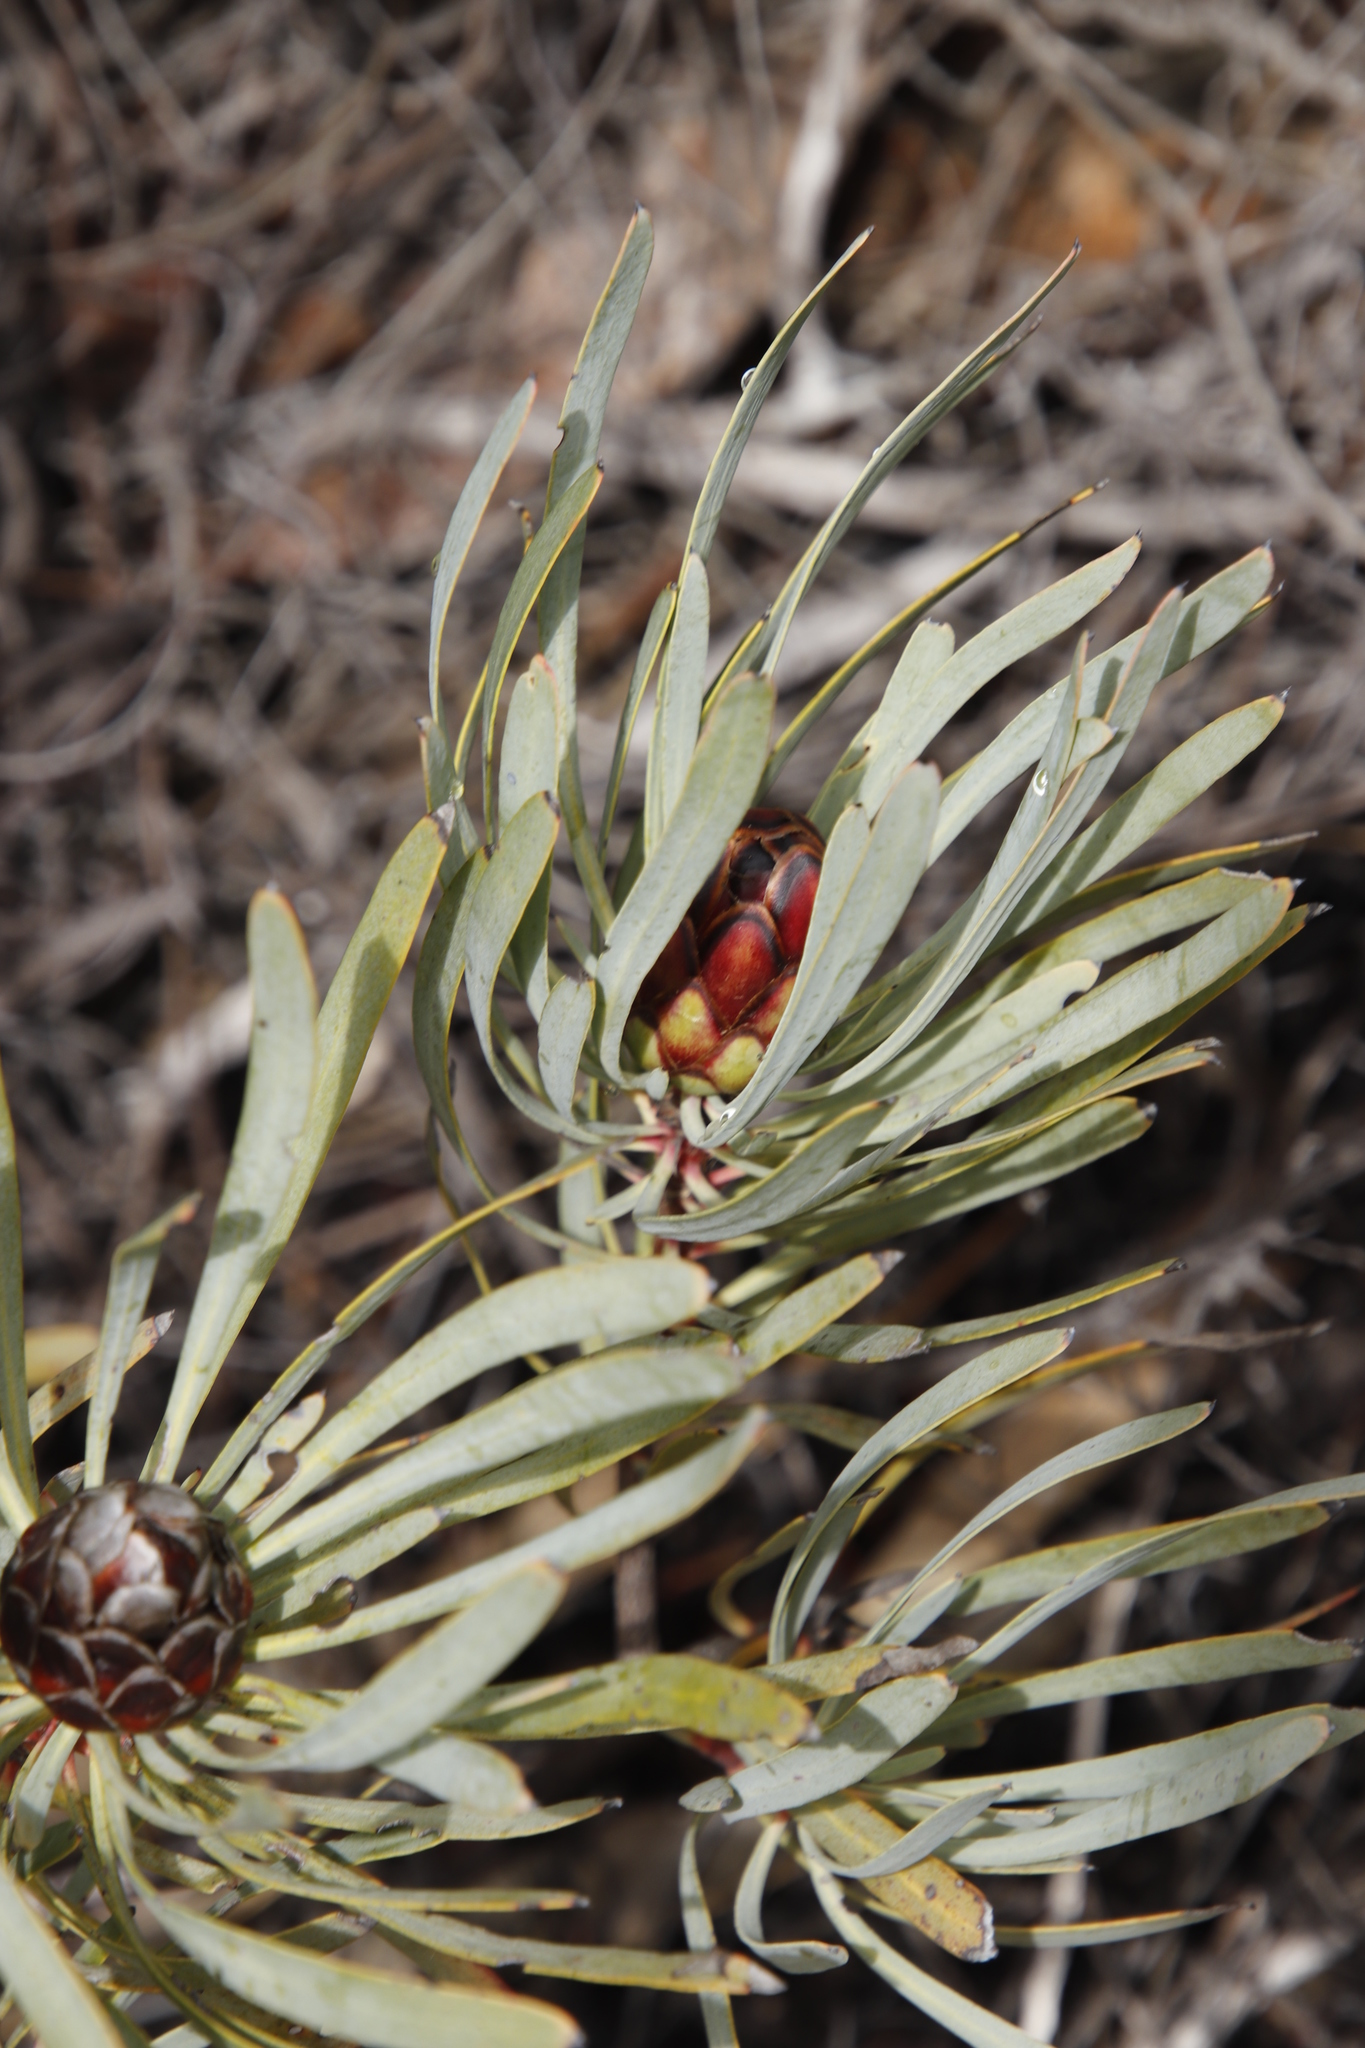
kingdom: Plantae
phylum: Tracheophyta
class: Magnoliopsida
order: Proteales
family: Proteaceae
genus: Protea
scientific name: Protea acuminata
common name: Black-rim sugarbush
